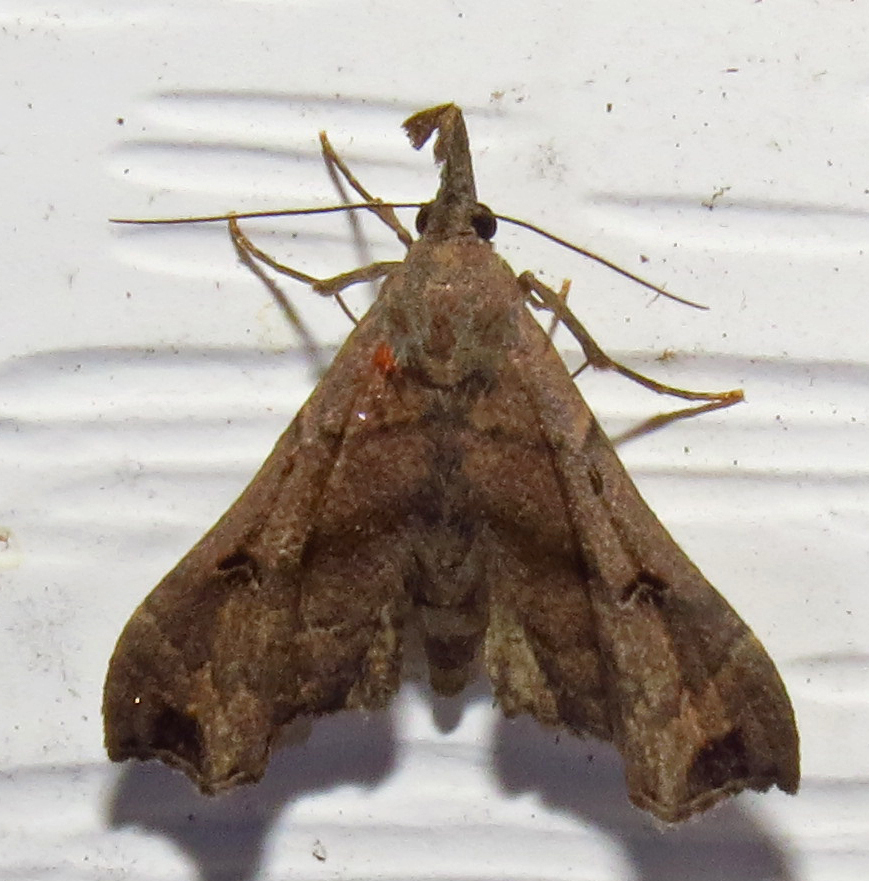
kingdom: Animalia
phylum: Arthropoda
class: Insecta
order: Lepidoptera
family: Erebidae
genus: Palthis
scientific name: Palthis asopialis
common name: Faint-spotted palthis moth
